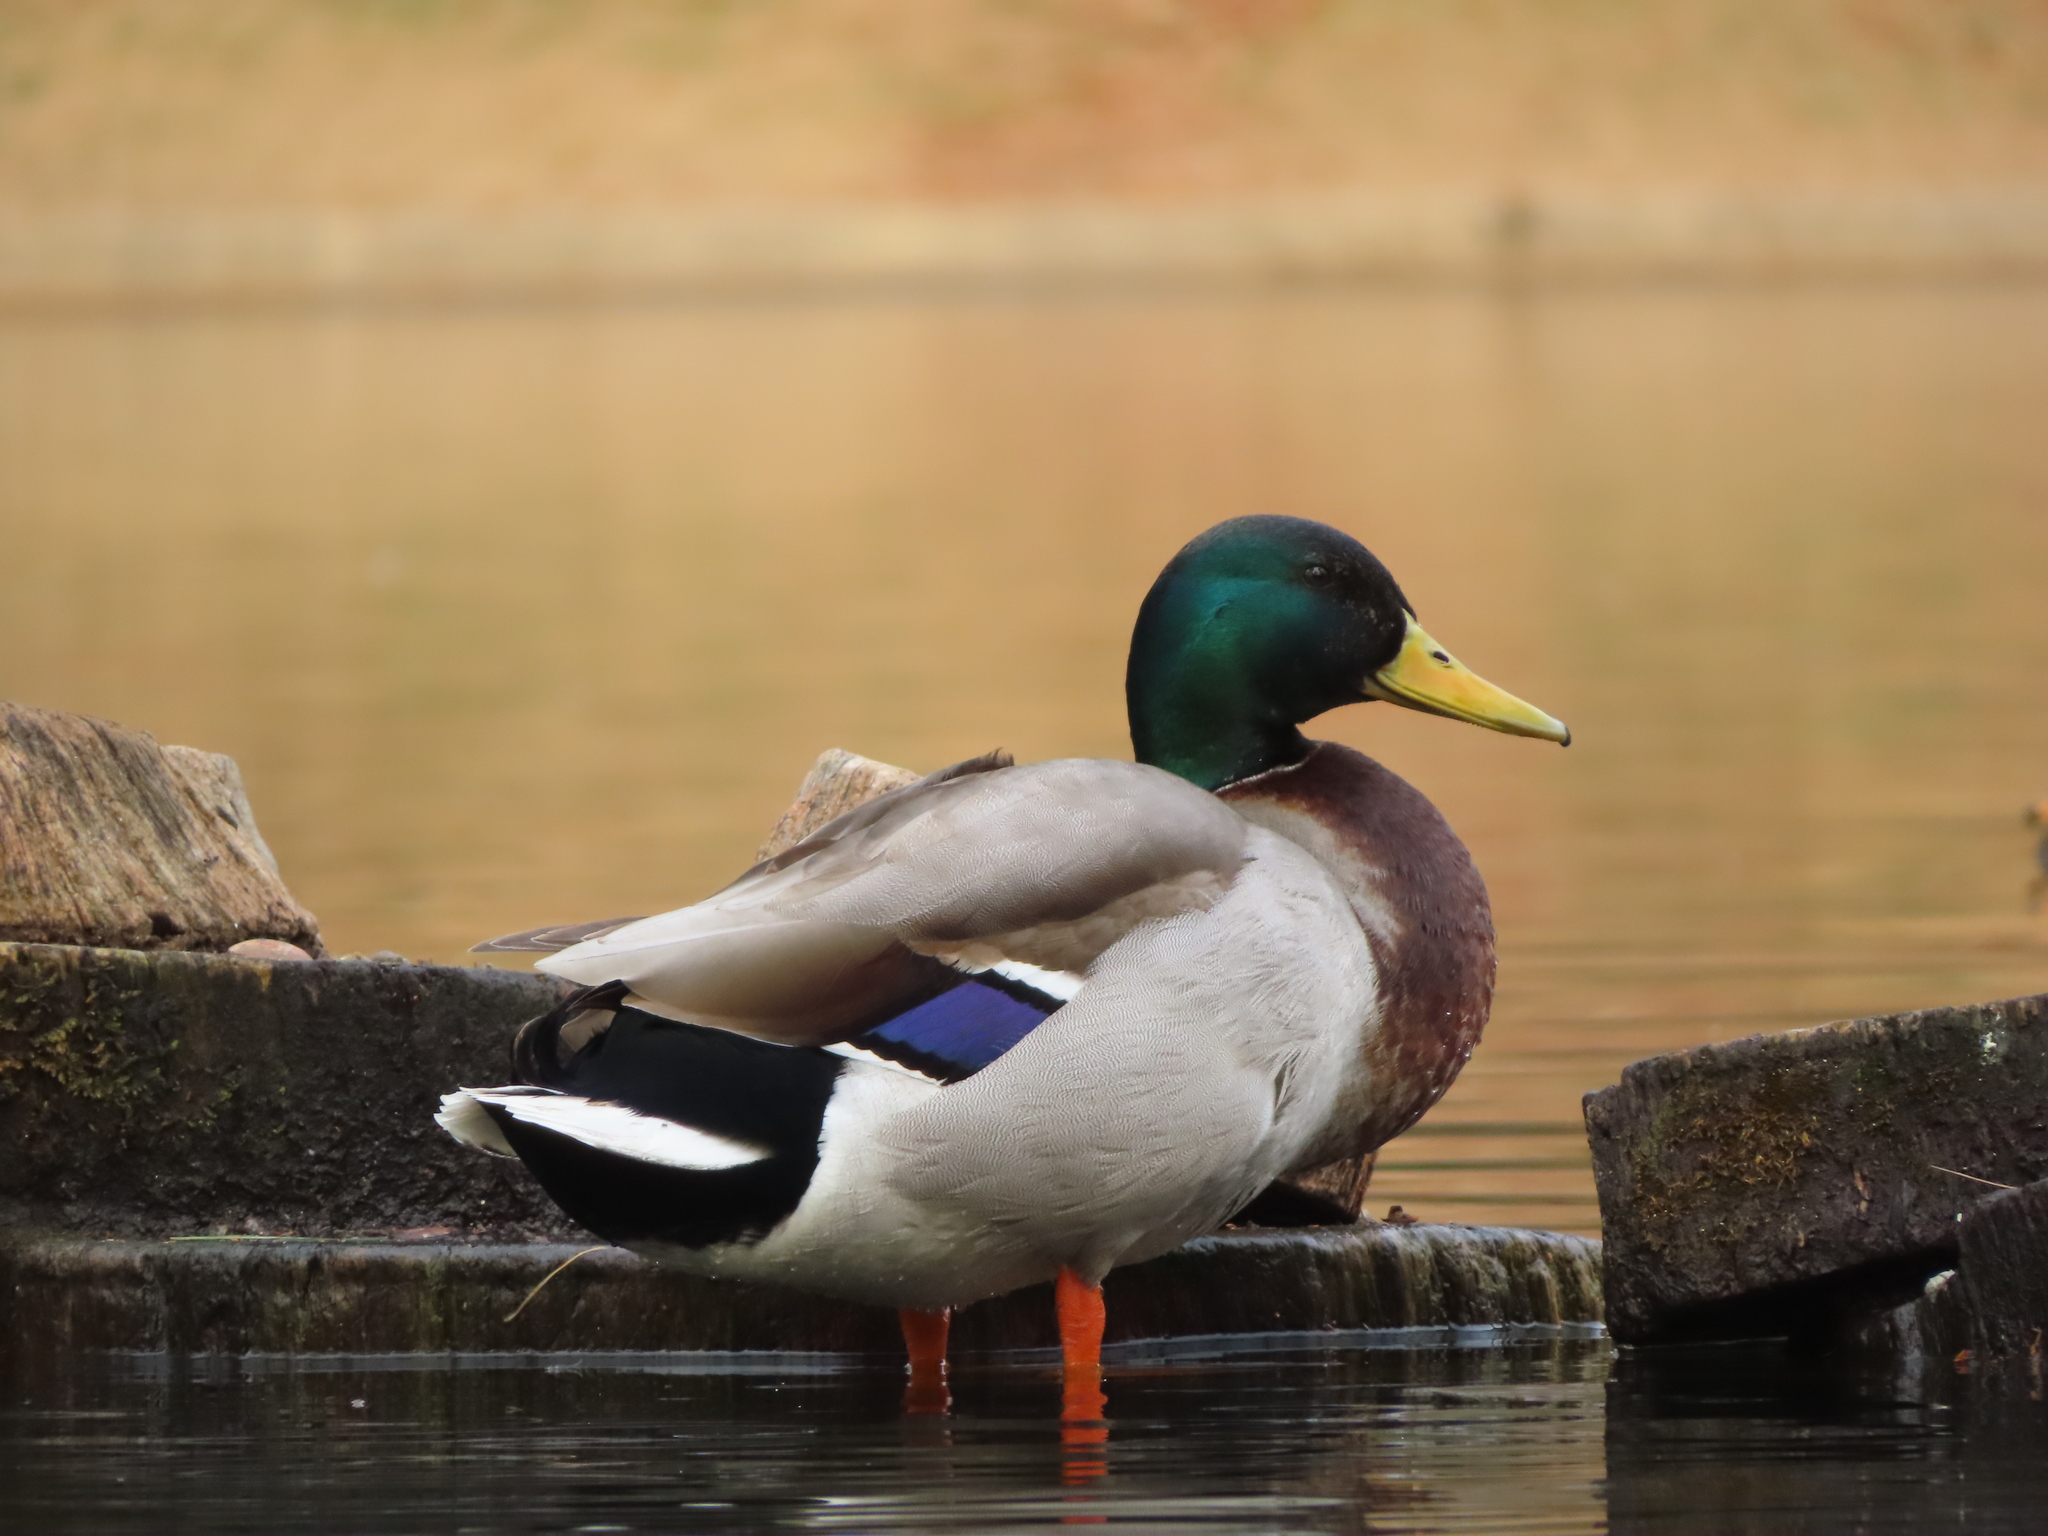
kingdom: Animalia
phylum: Chordata
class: Aves
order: Anseriformes
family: Anatidae
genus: Anas
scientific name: Anas platyrhynchos
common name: Mallard
